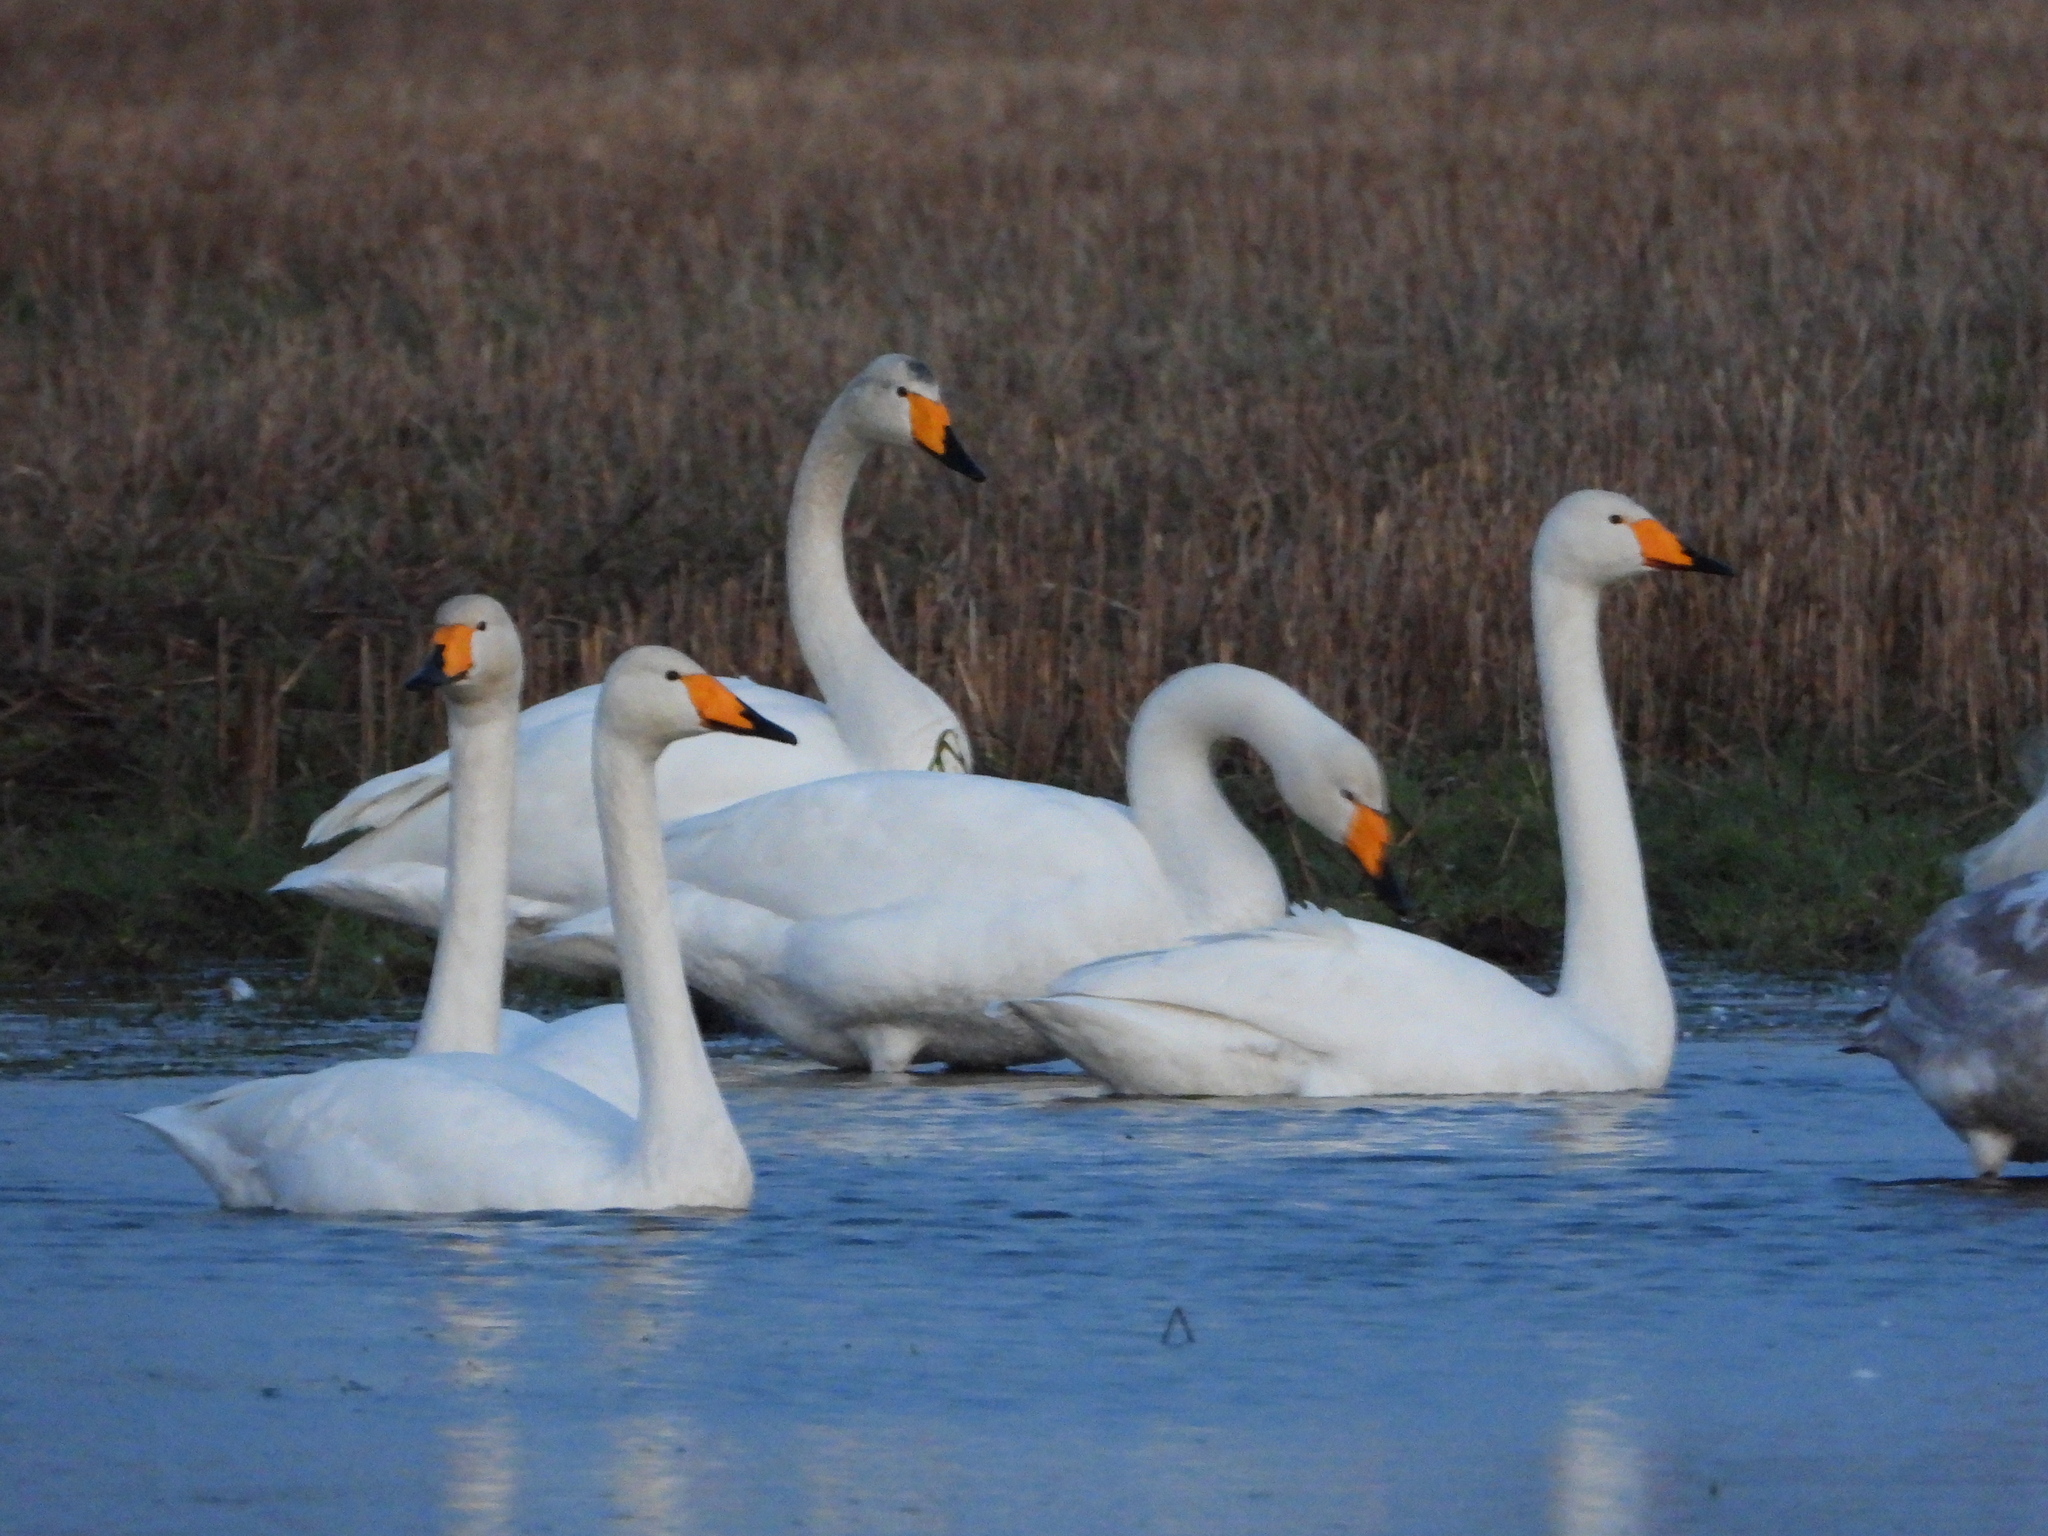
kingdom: Animalia
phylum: Chordata
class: Aves
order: Anseriformes
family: Anatidae
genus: Cygnus
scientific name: Cygnus cygnus
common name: Whooper swan
